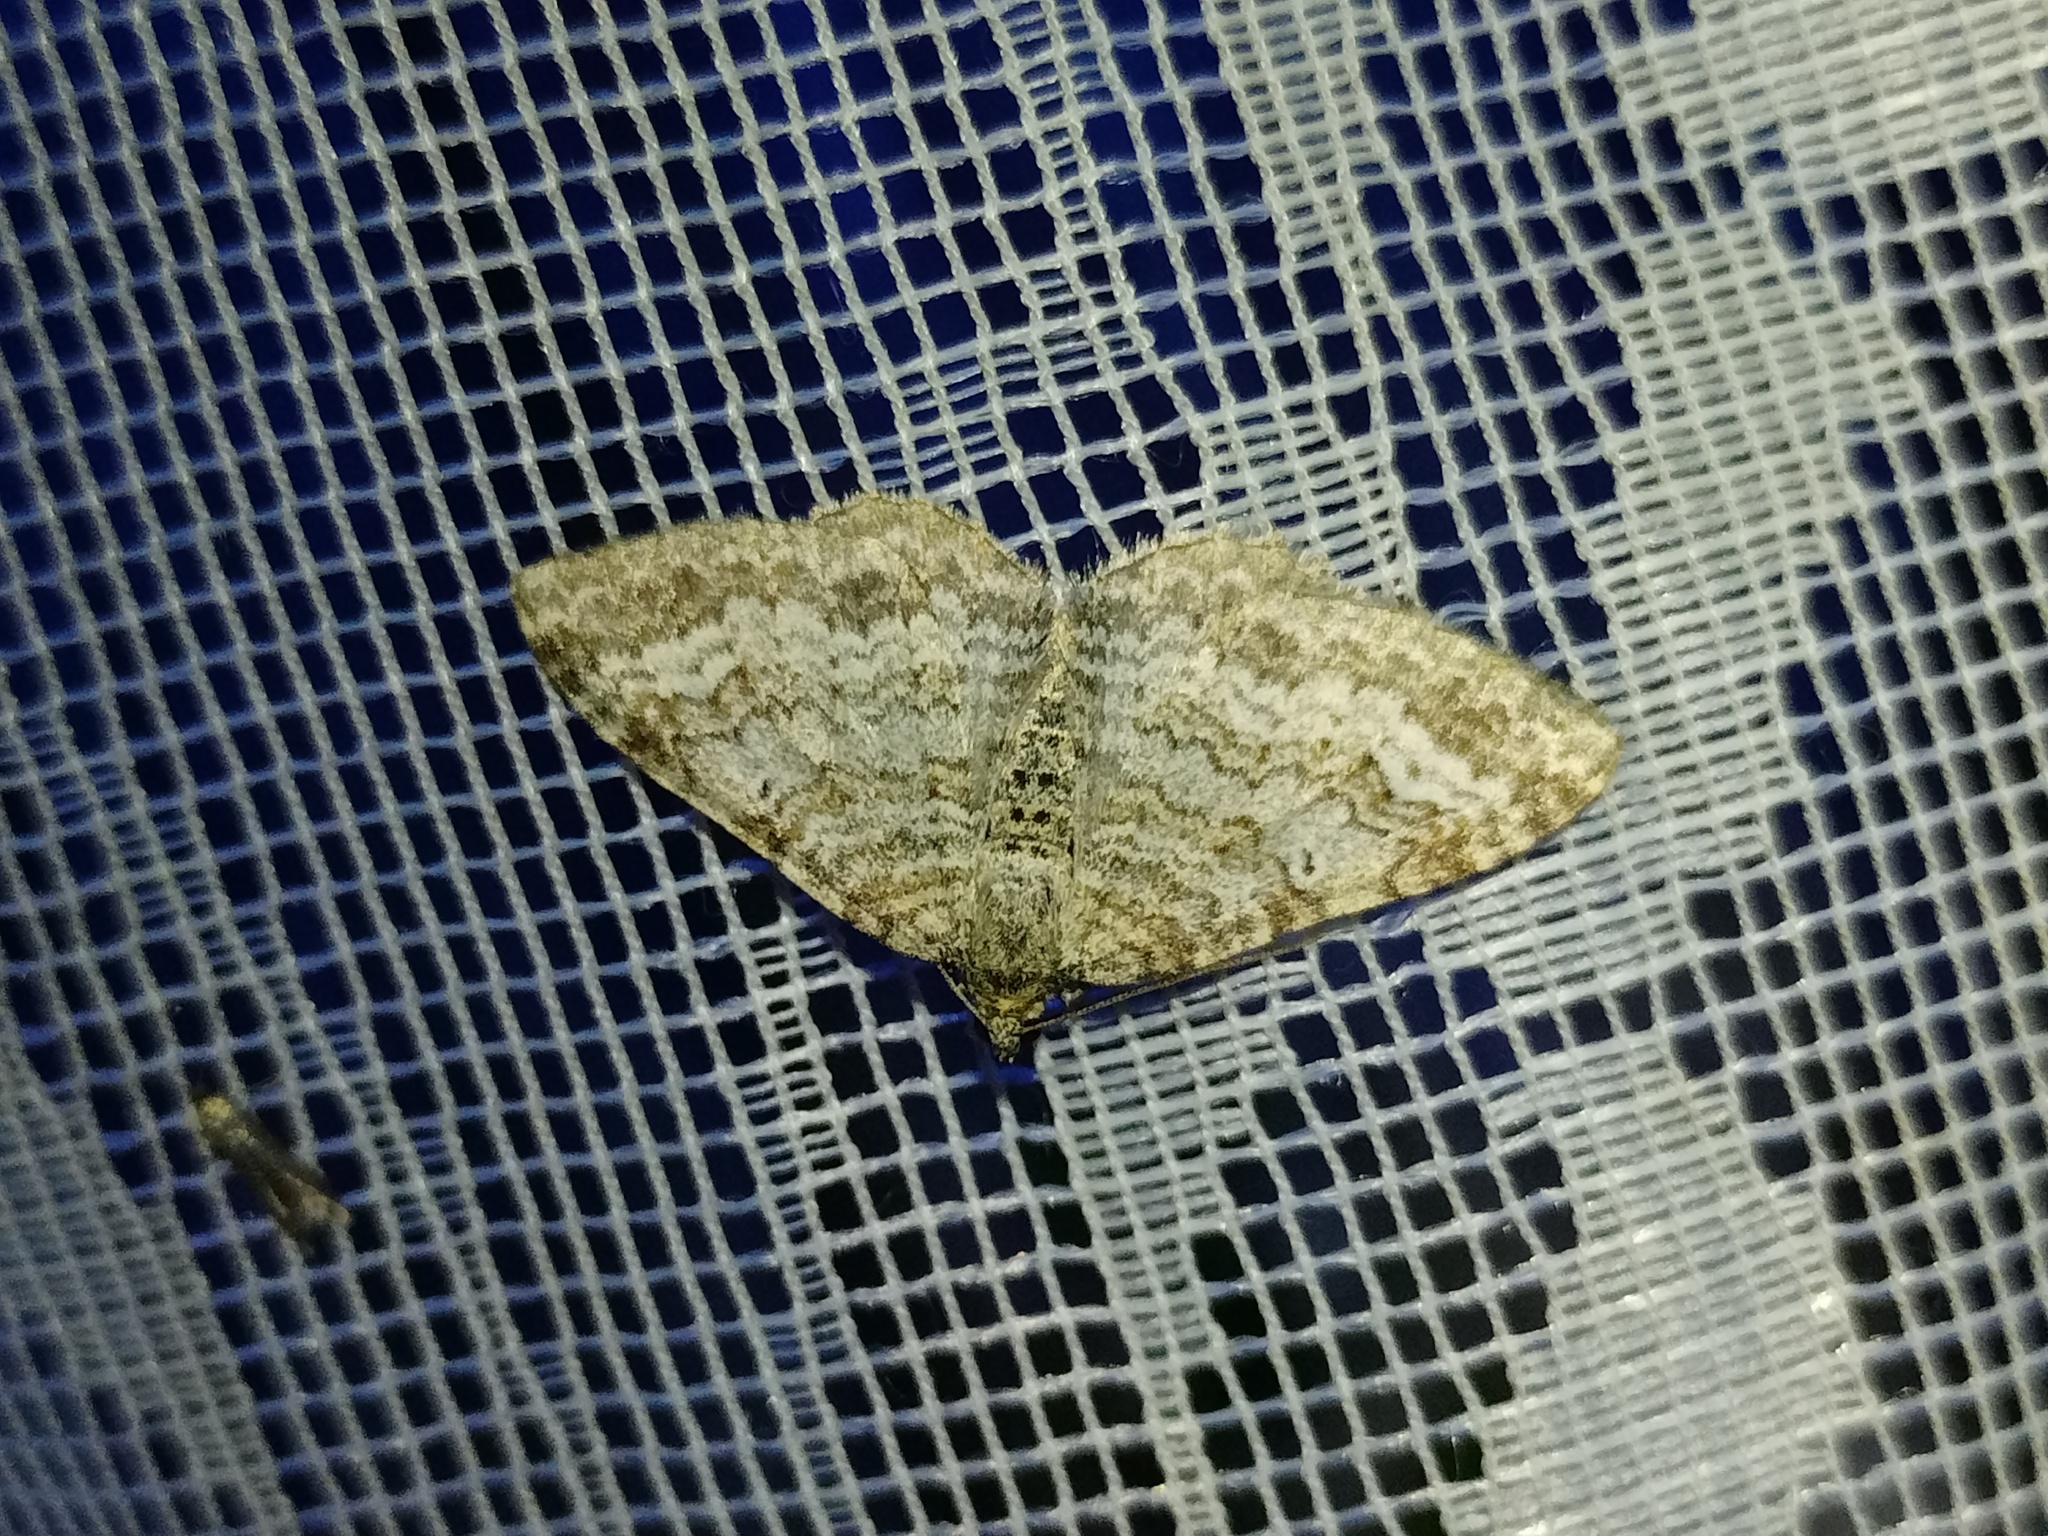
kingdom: Animalia
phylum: Arthropoda
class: Insecta
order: Lepidoptera
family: Geometridae
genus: Euphyia
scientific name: Euphyia molluginata
